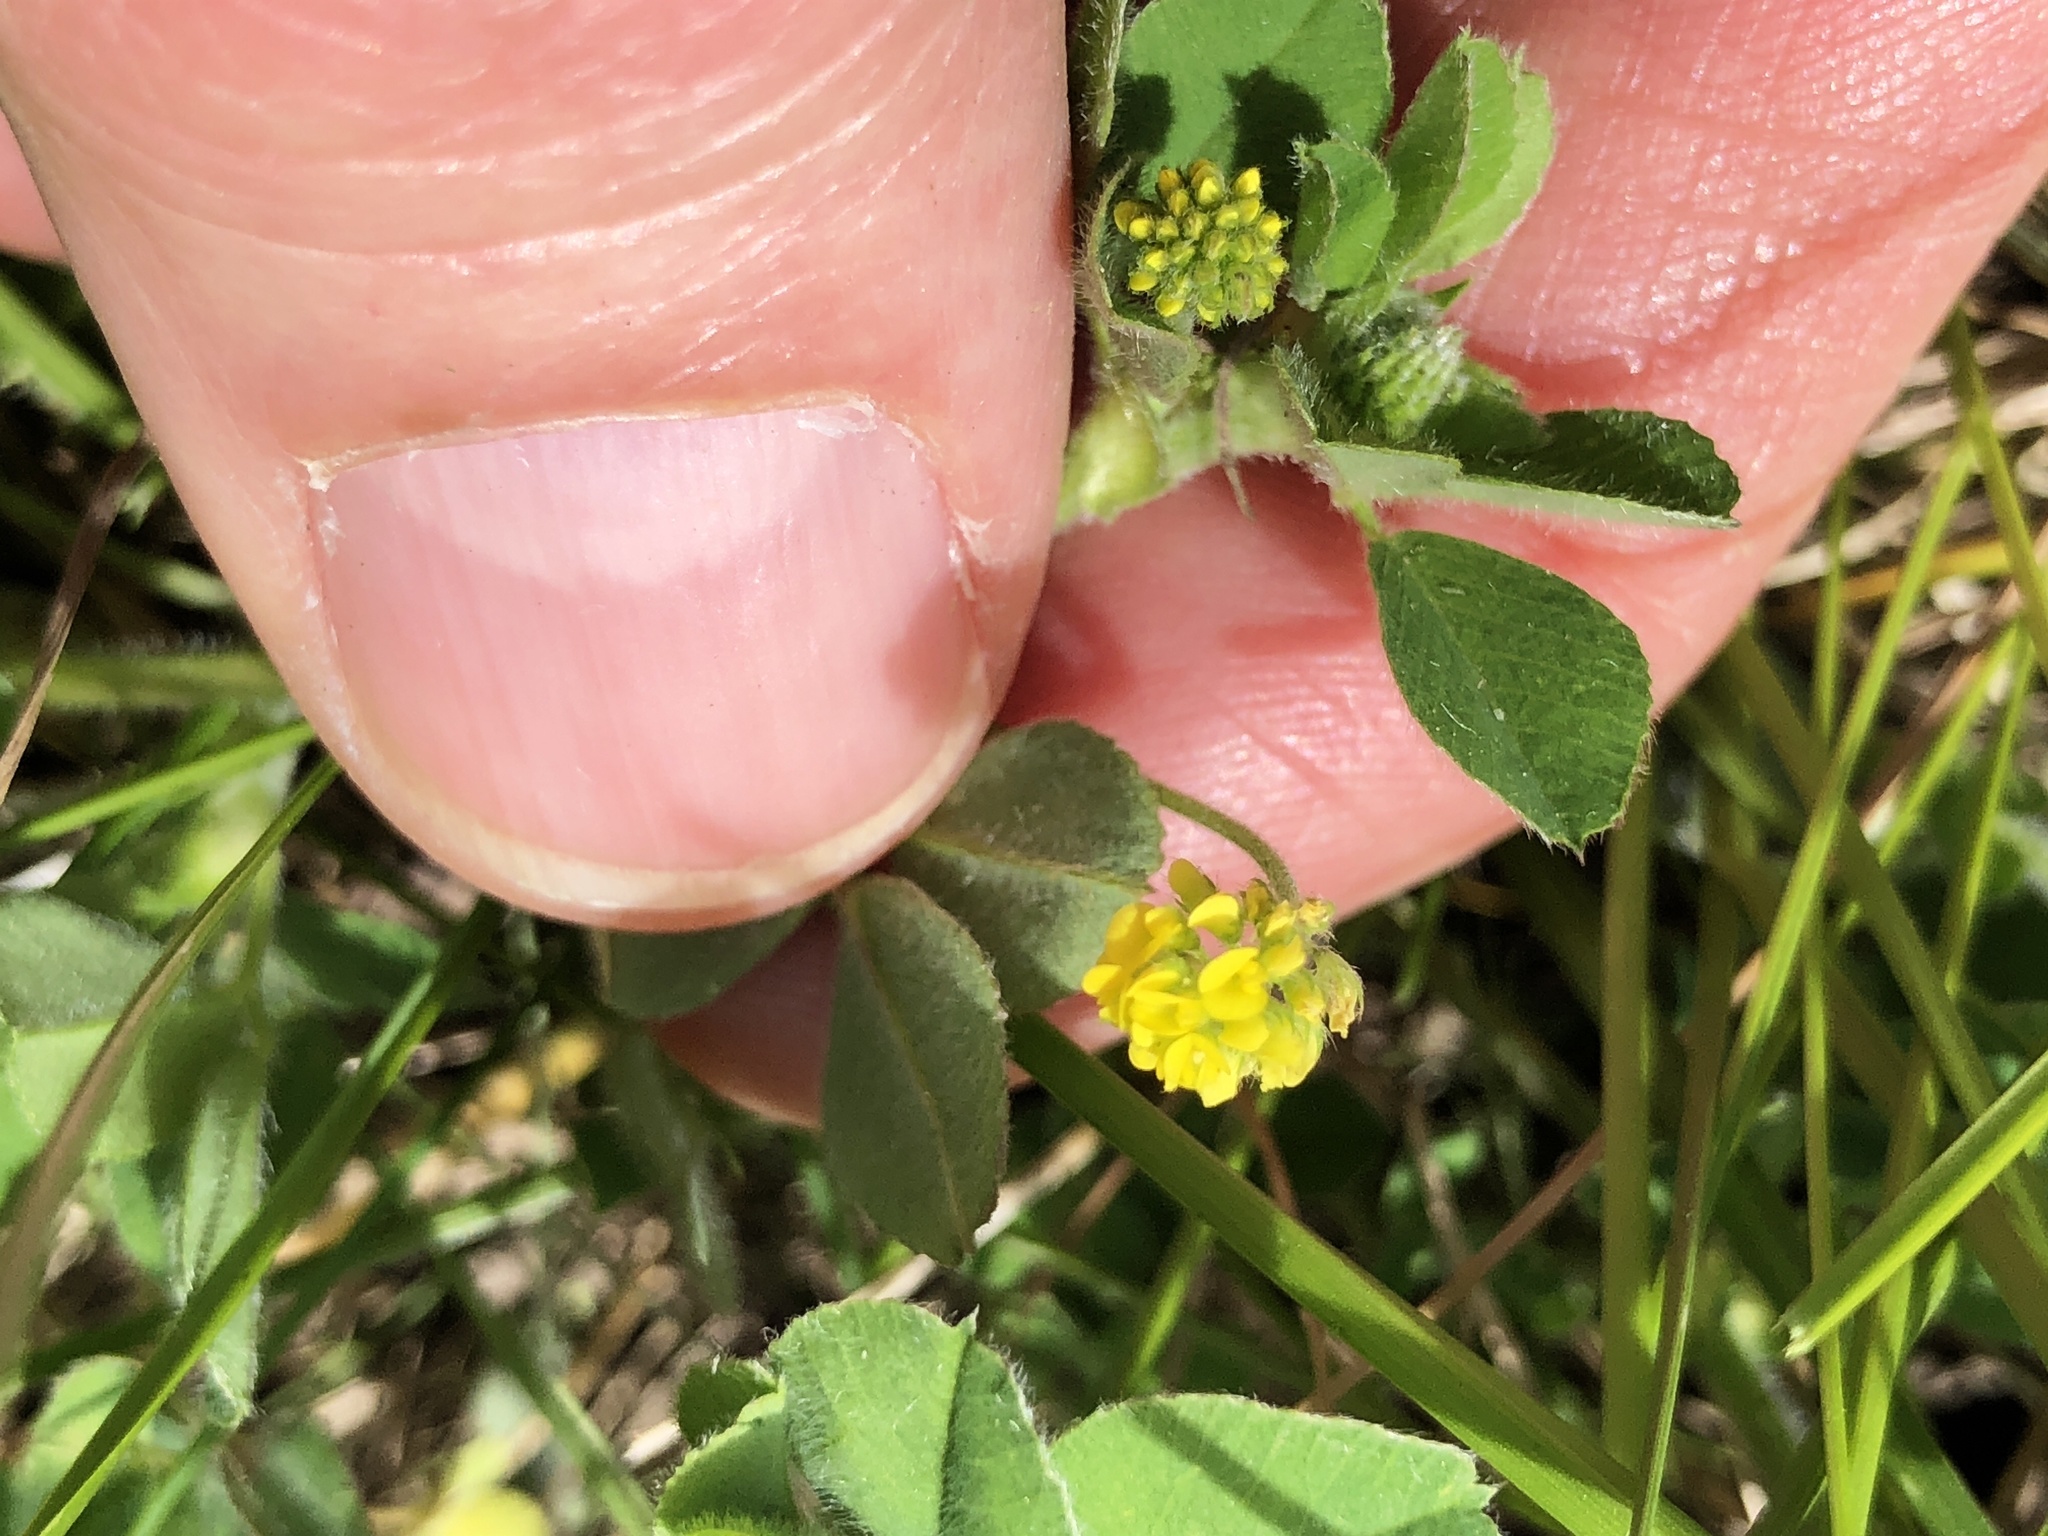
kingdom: Plantae
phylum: Tracheophyta
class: Magnoliopsida
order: Fabales
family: Fabaceae
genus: Medicago
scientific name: Medicago lupulina
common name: Black medick
